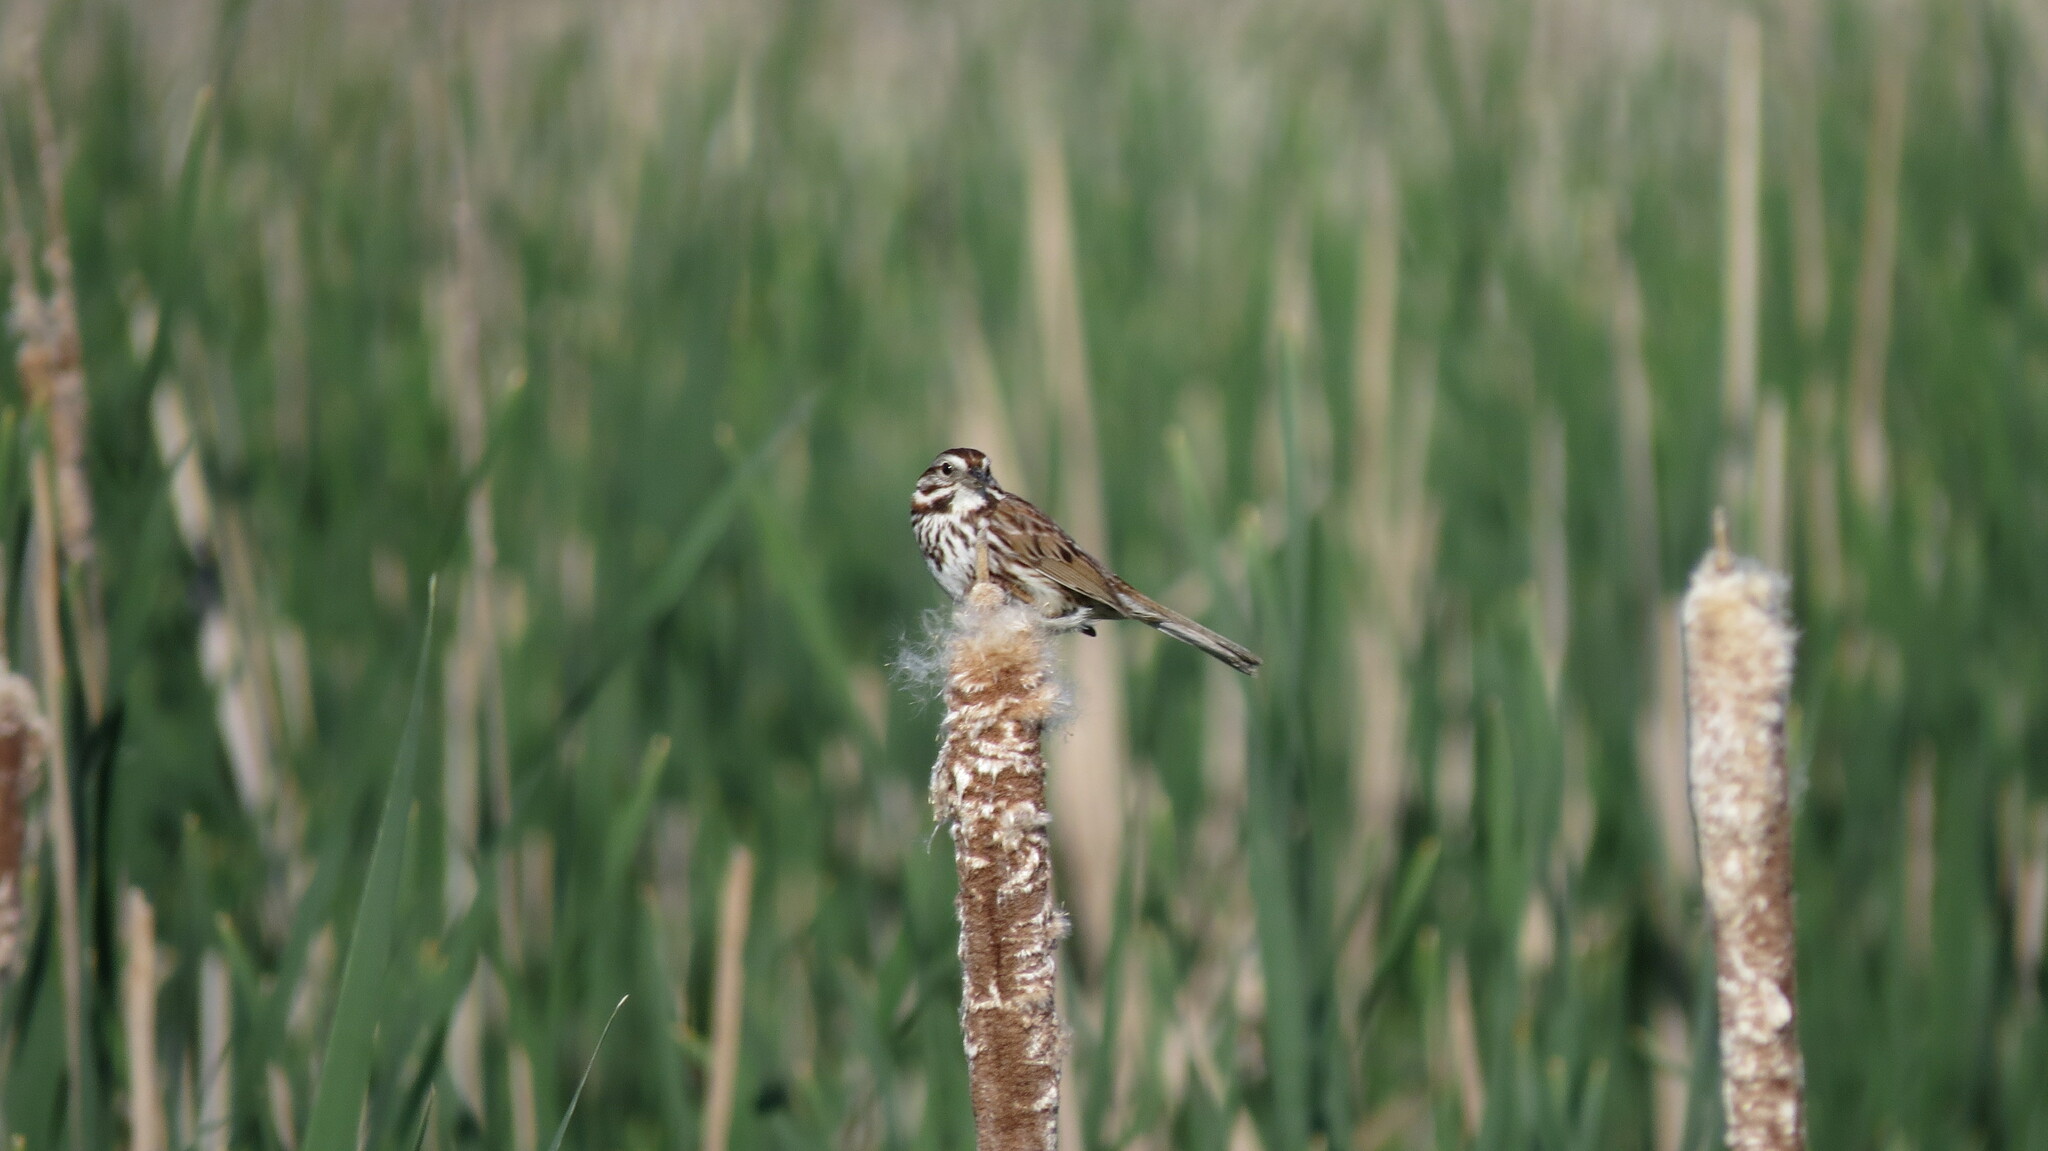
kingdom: Animalia
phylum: Chordata
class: Aves
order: Passeriformes
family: Passerellidae
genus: Melospiza
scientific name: Melospiza melodia
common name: Song sparrow
